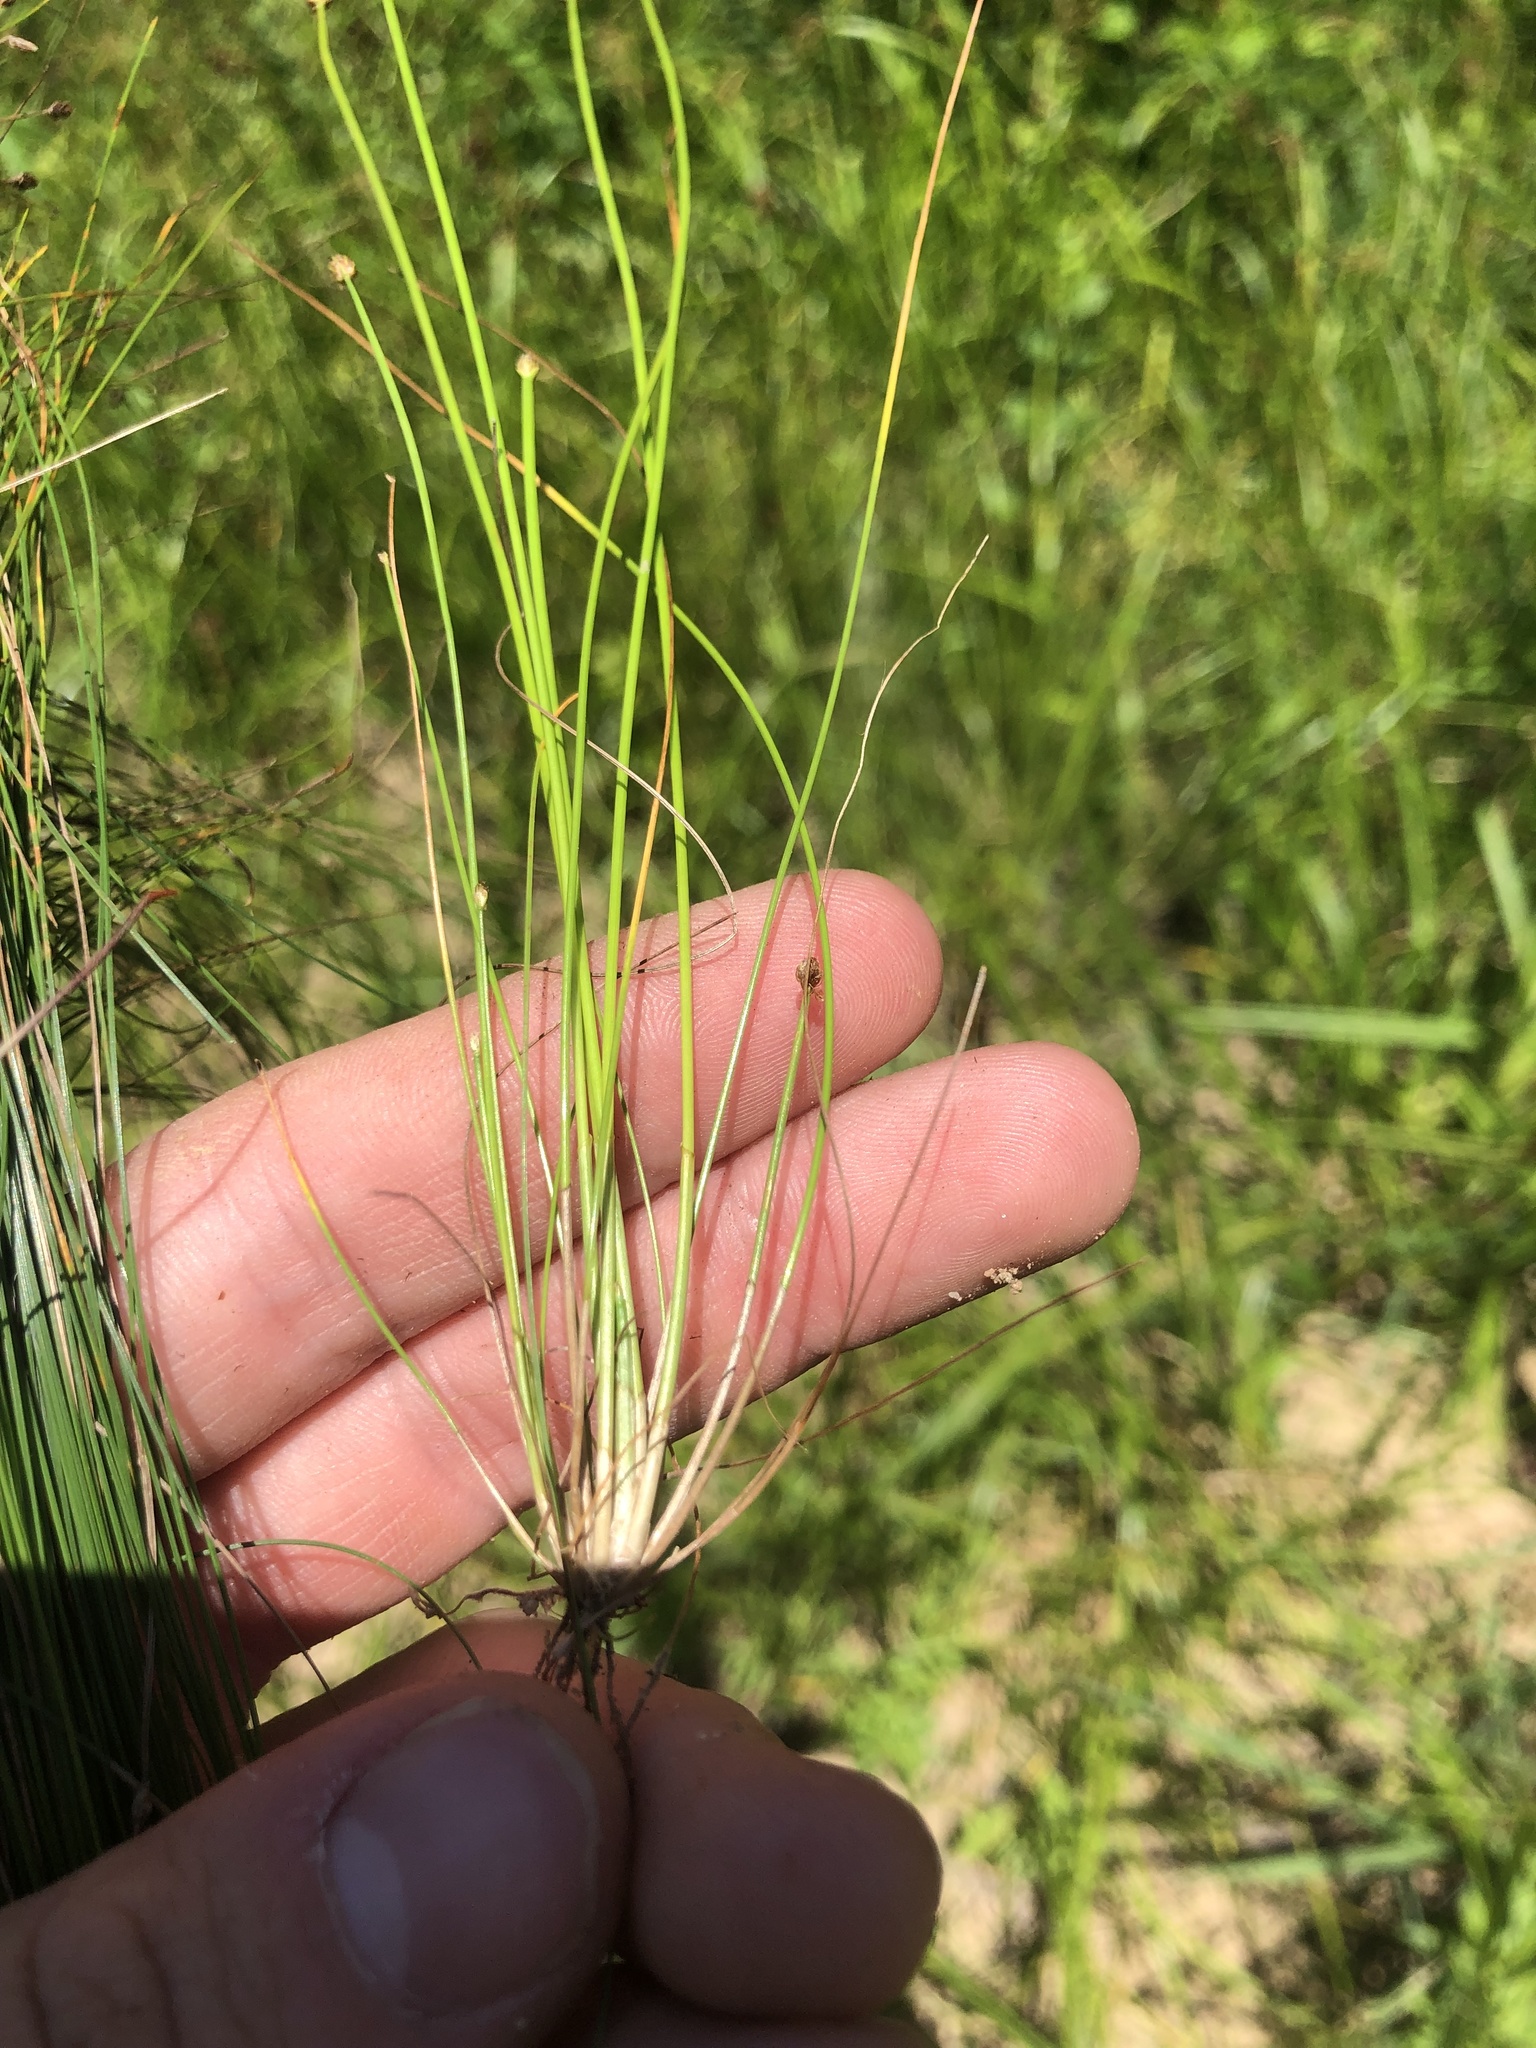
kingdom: Plantae
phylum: Tracheophyta
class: Liliopsida
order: Poales
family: Cyperaceae
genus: Eleocharis
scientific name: Eleocharis obtusa
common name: Blunt spikerush
